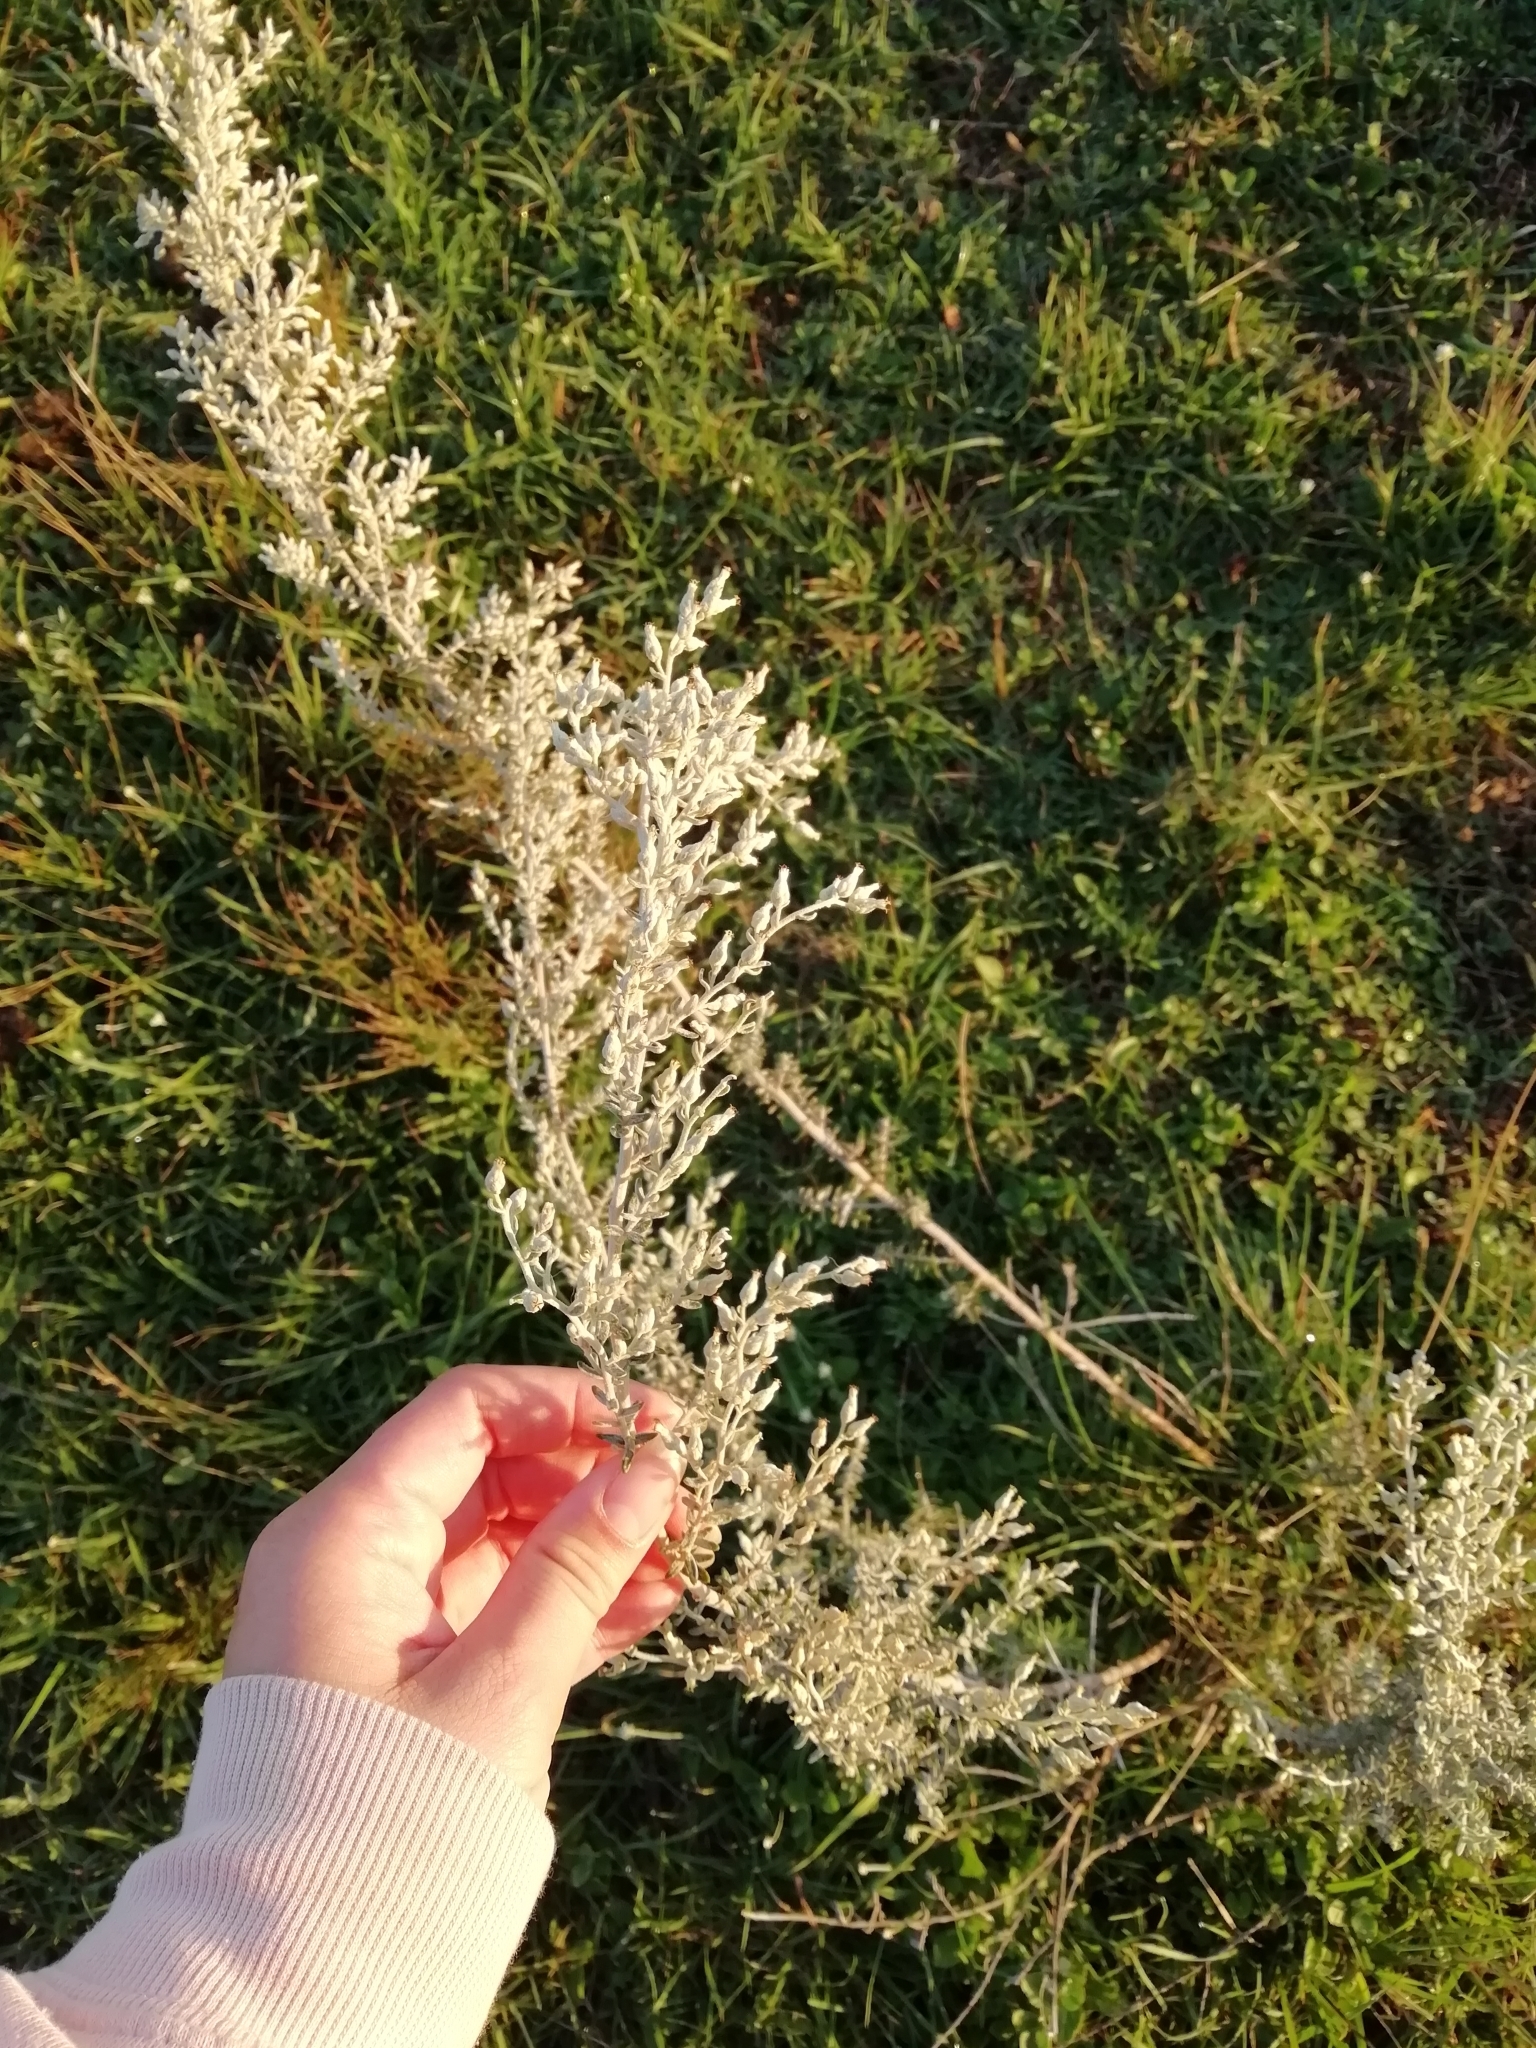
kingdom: Plantae
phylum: Tracheophyta
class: Magnoliopsida
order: Asterales
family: Asteraceae
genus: Baccharis
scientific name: Baccharis ochracea
